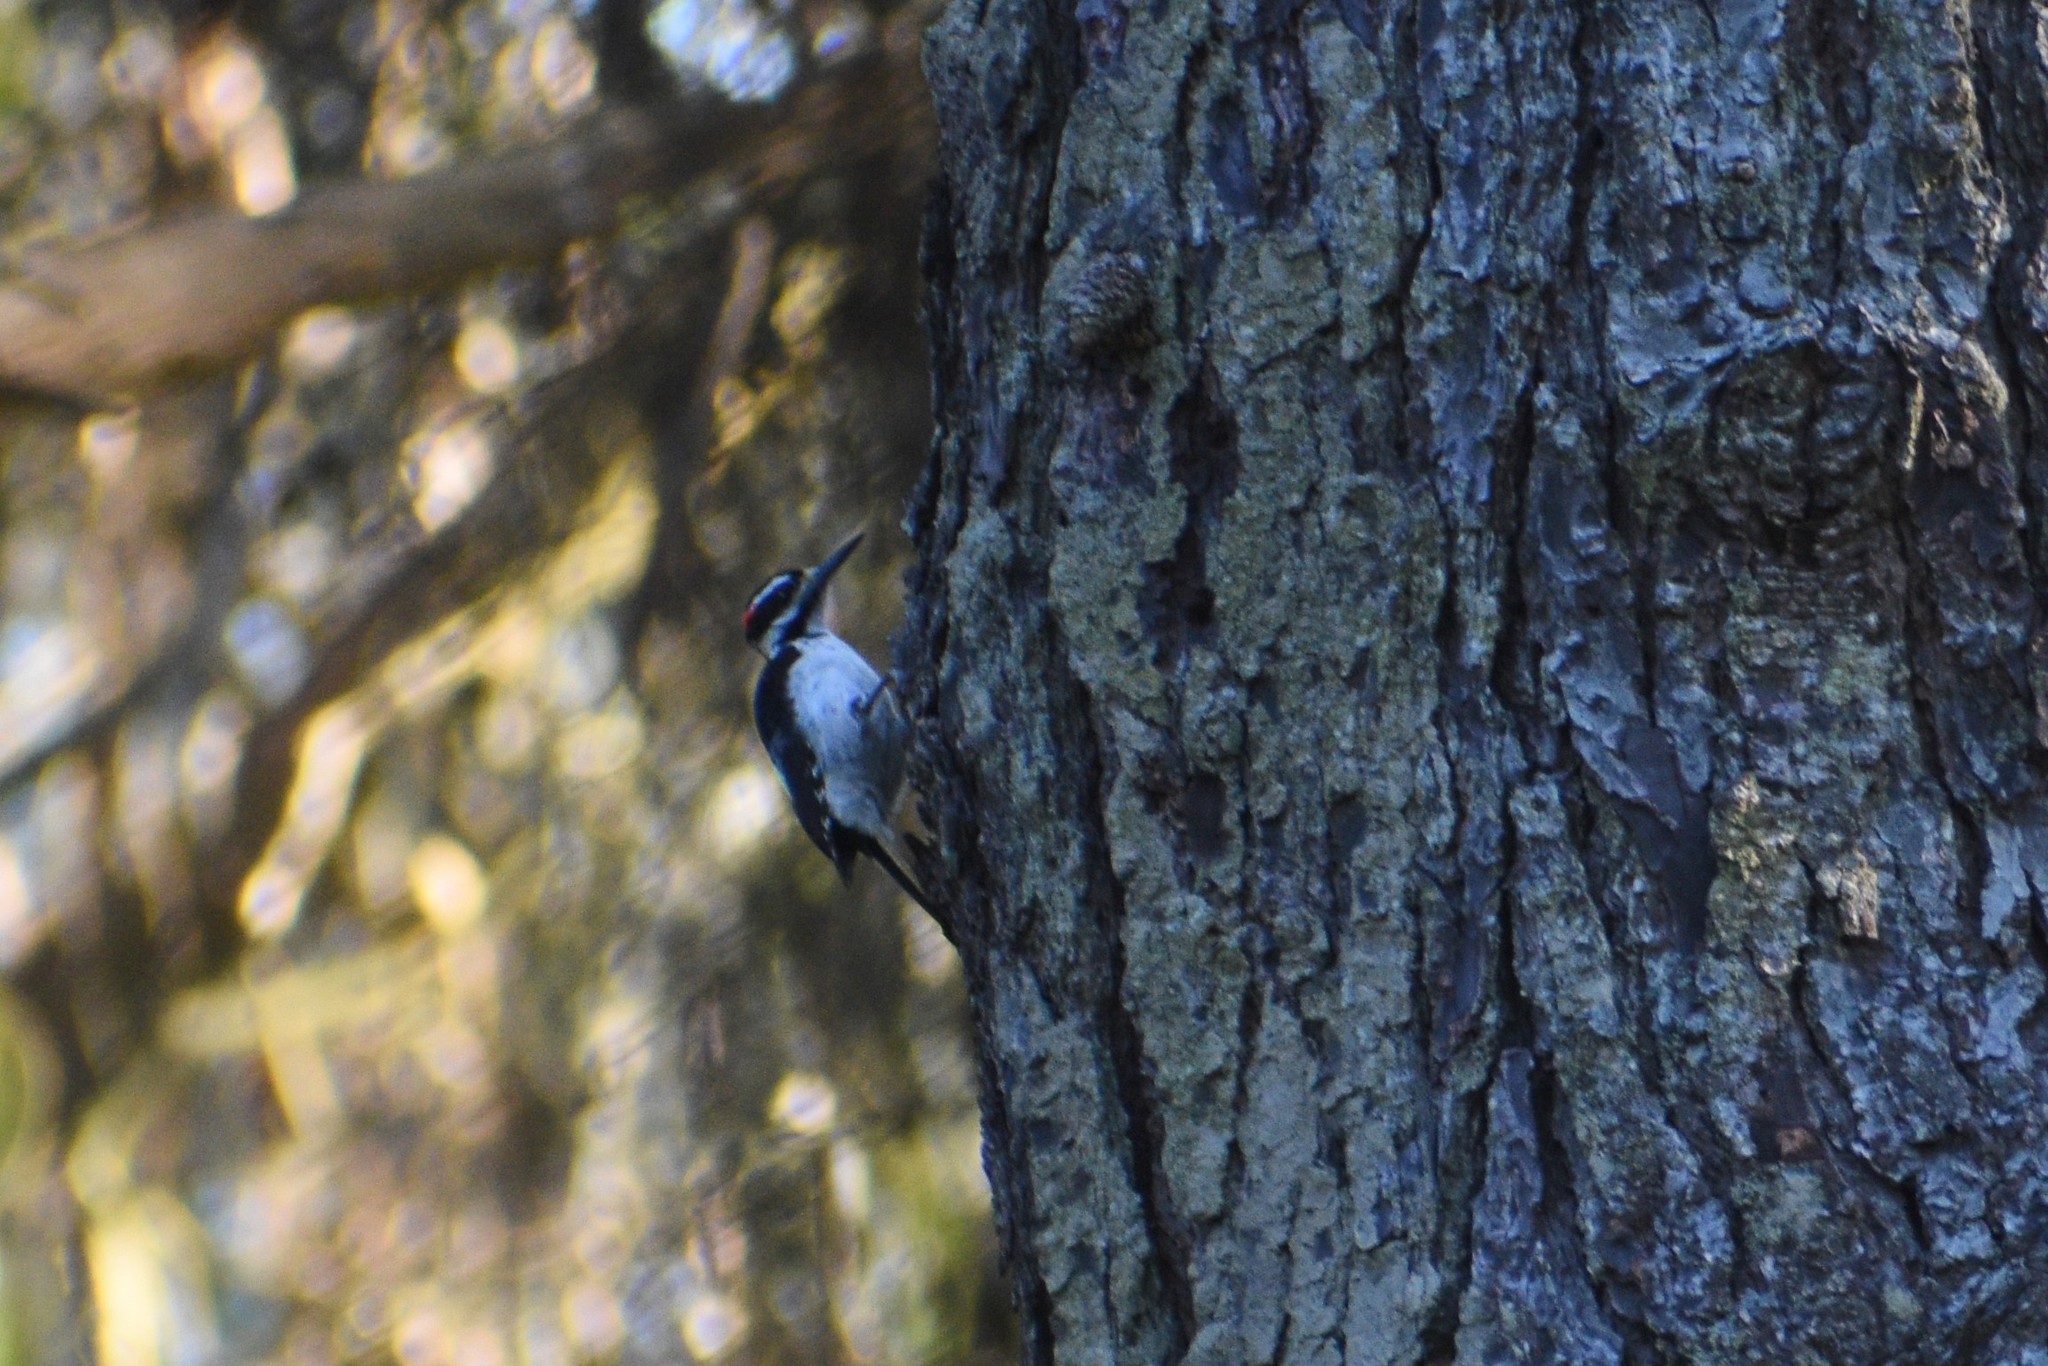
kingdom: Animalia
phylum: Chordata
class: Aves
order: Piciformes
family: Picidae
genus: Leuconotopicus
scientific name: Leuconotopicus villosus
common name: Hairy woodpecker
